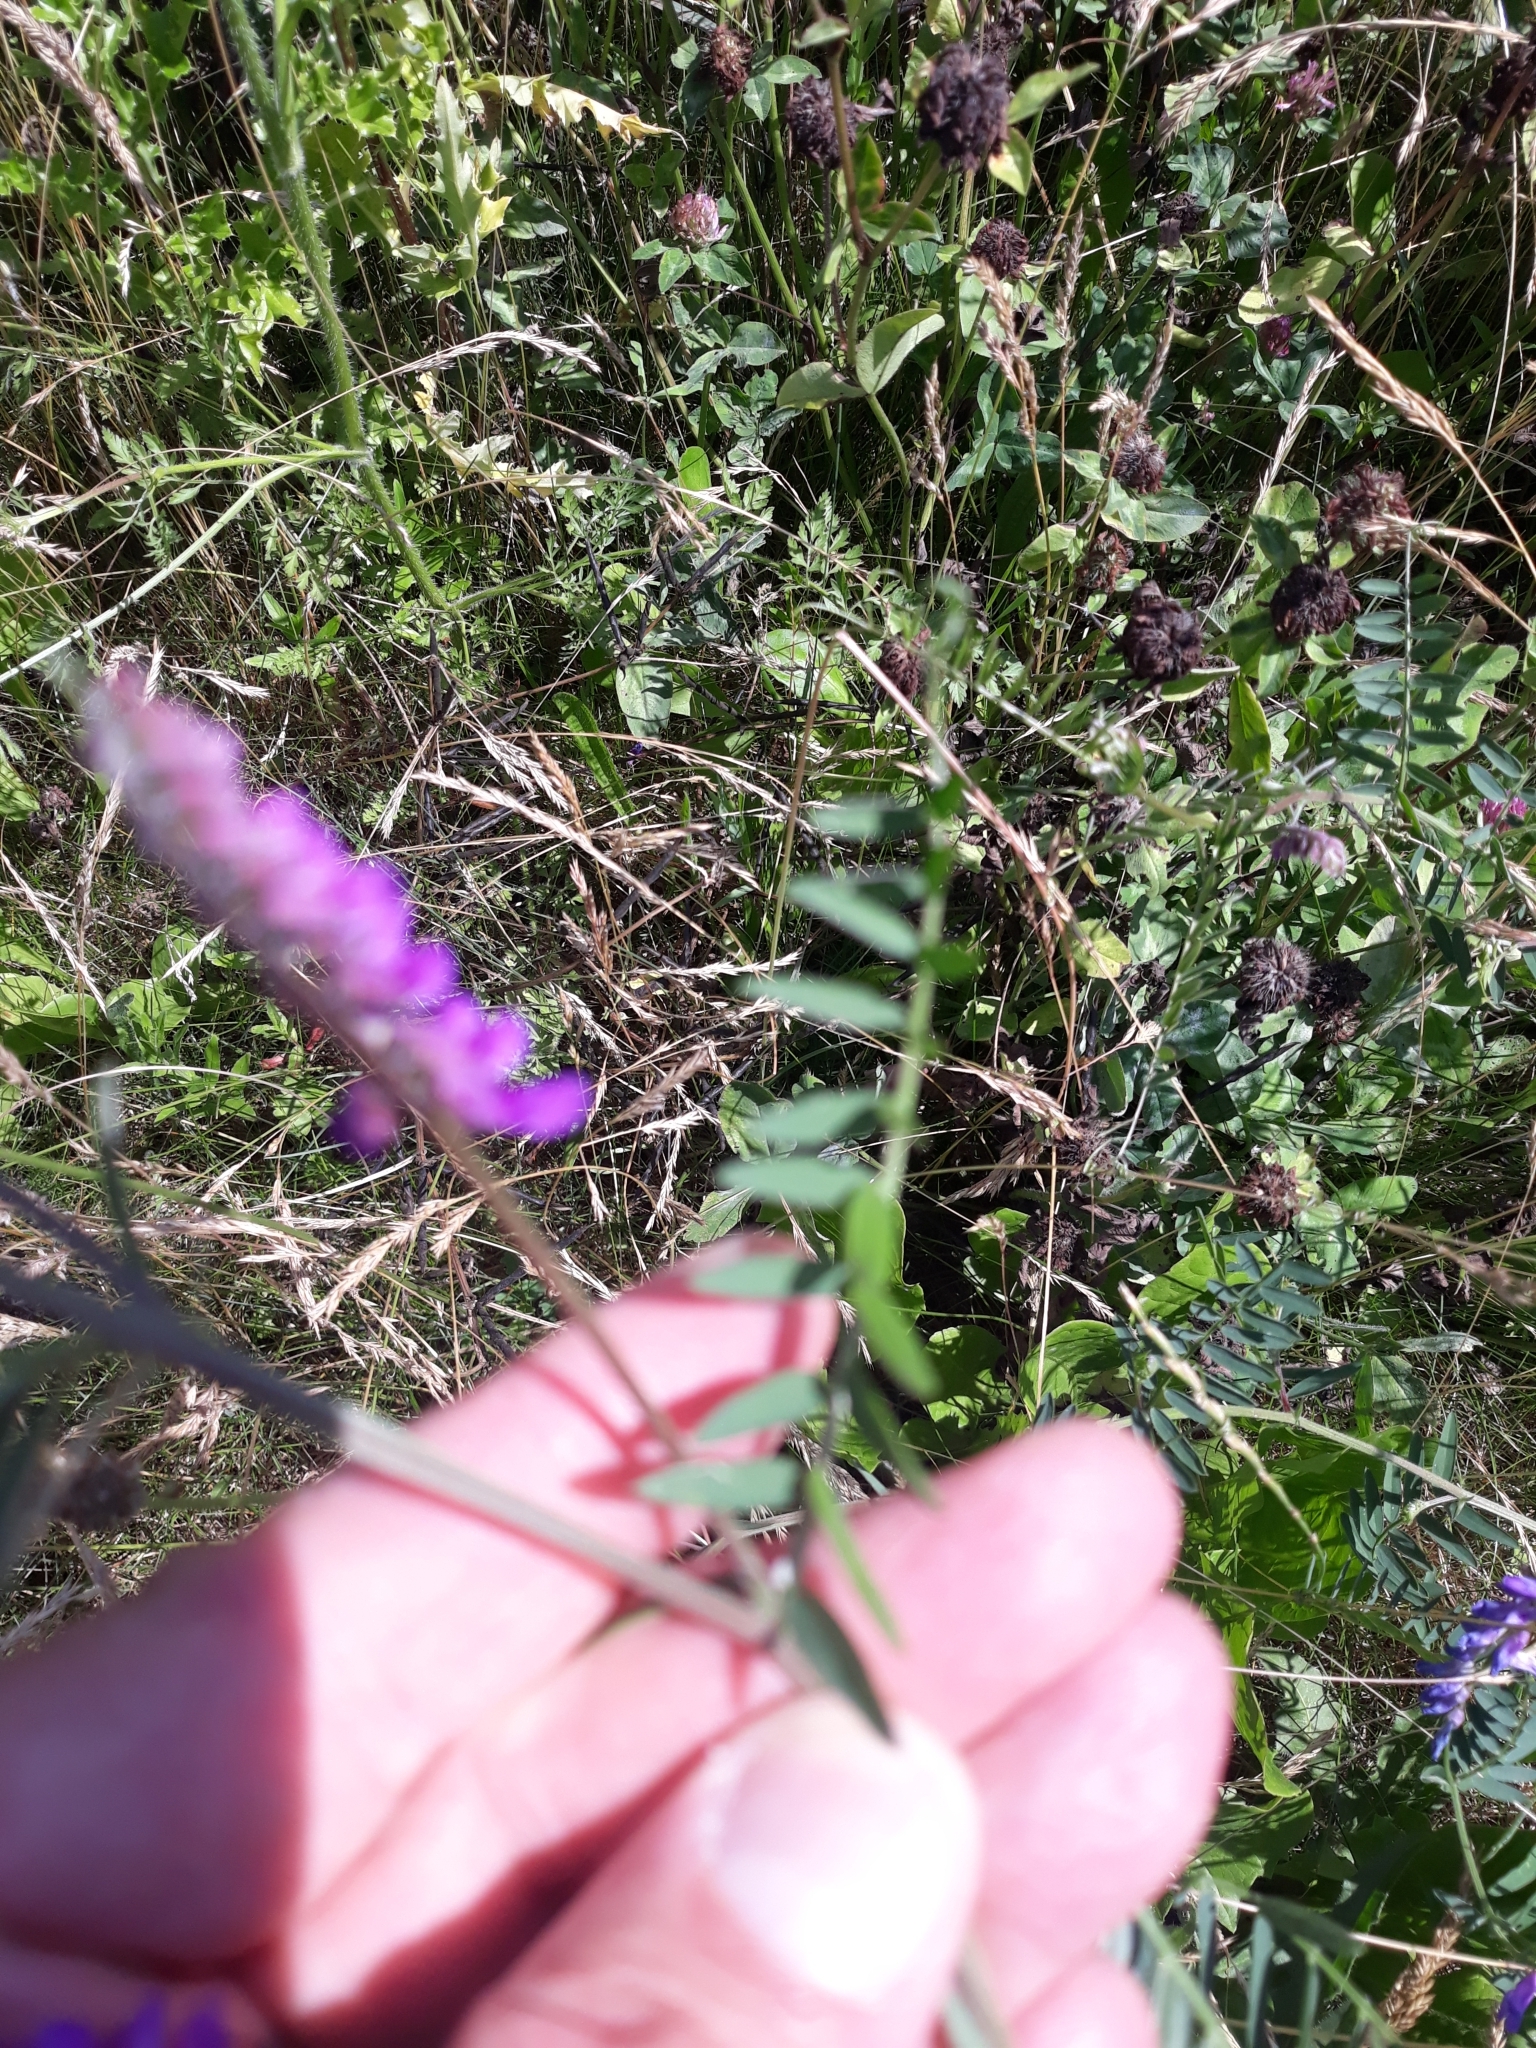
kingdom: Plantae
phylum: Tracheophyta
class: Magnoliopsida
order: Fabales
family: Fabaceae
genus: Vicia
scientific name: Vicia cracca
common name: Bird vetch
